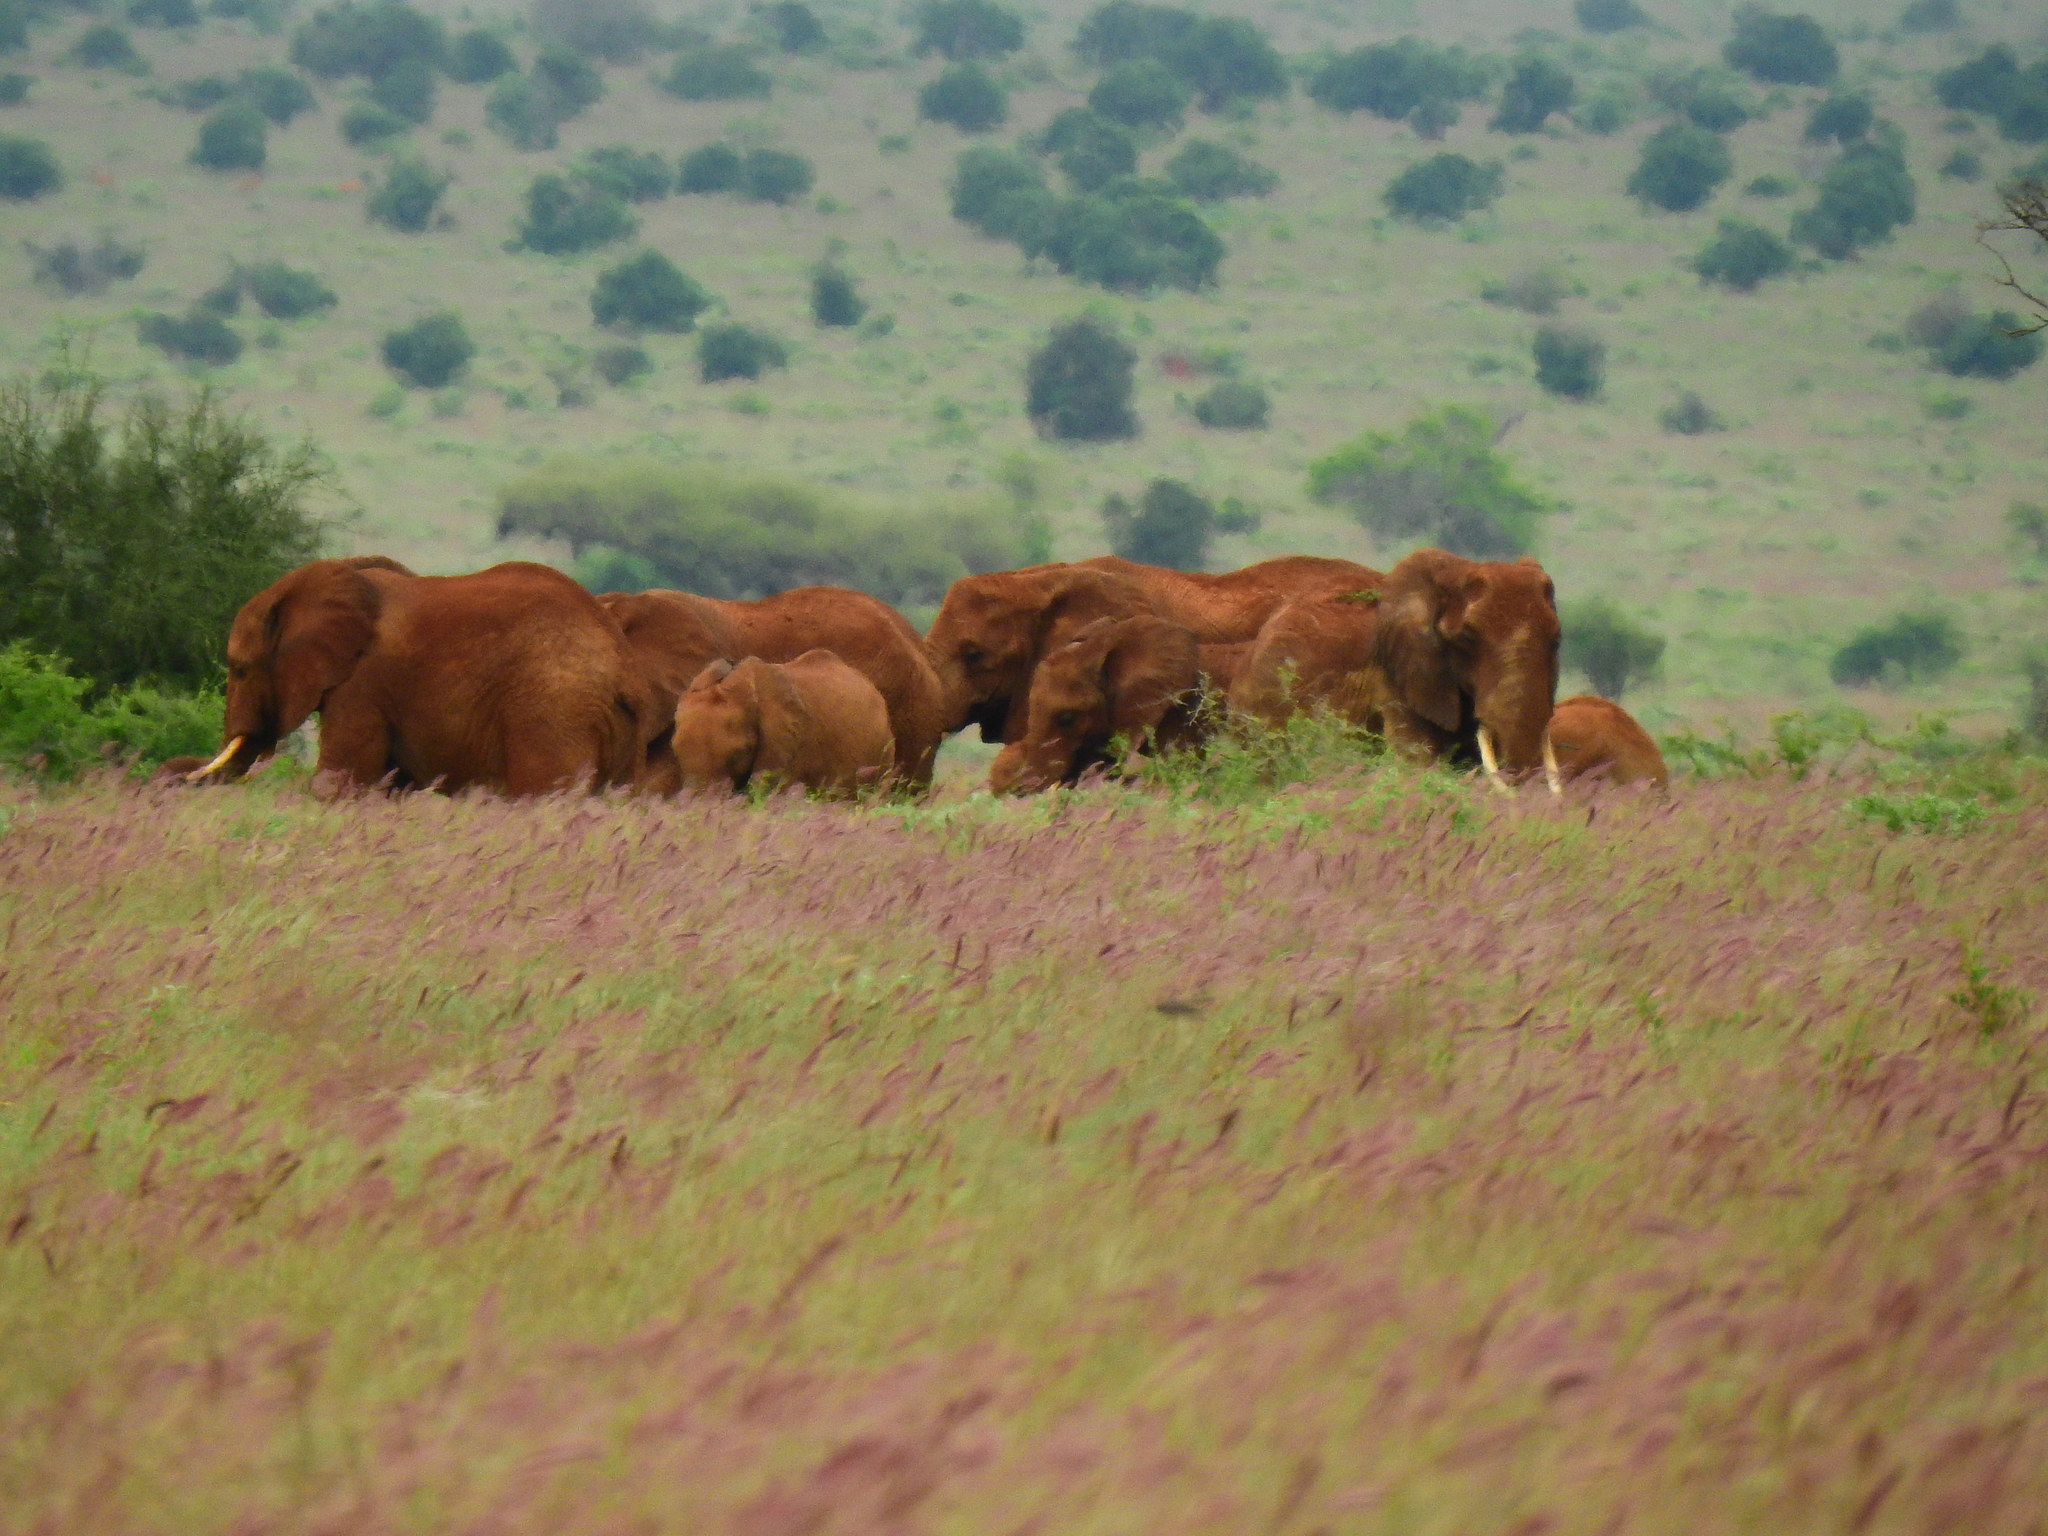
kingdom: Animalia
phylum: Chordata
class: Mammalia
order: Proboscidea
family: Elephantidae
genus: Loxodonta
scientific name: Loxodonta africana
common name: African elephant
